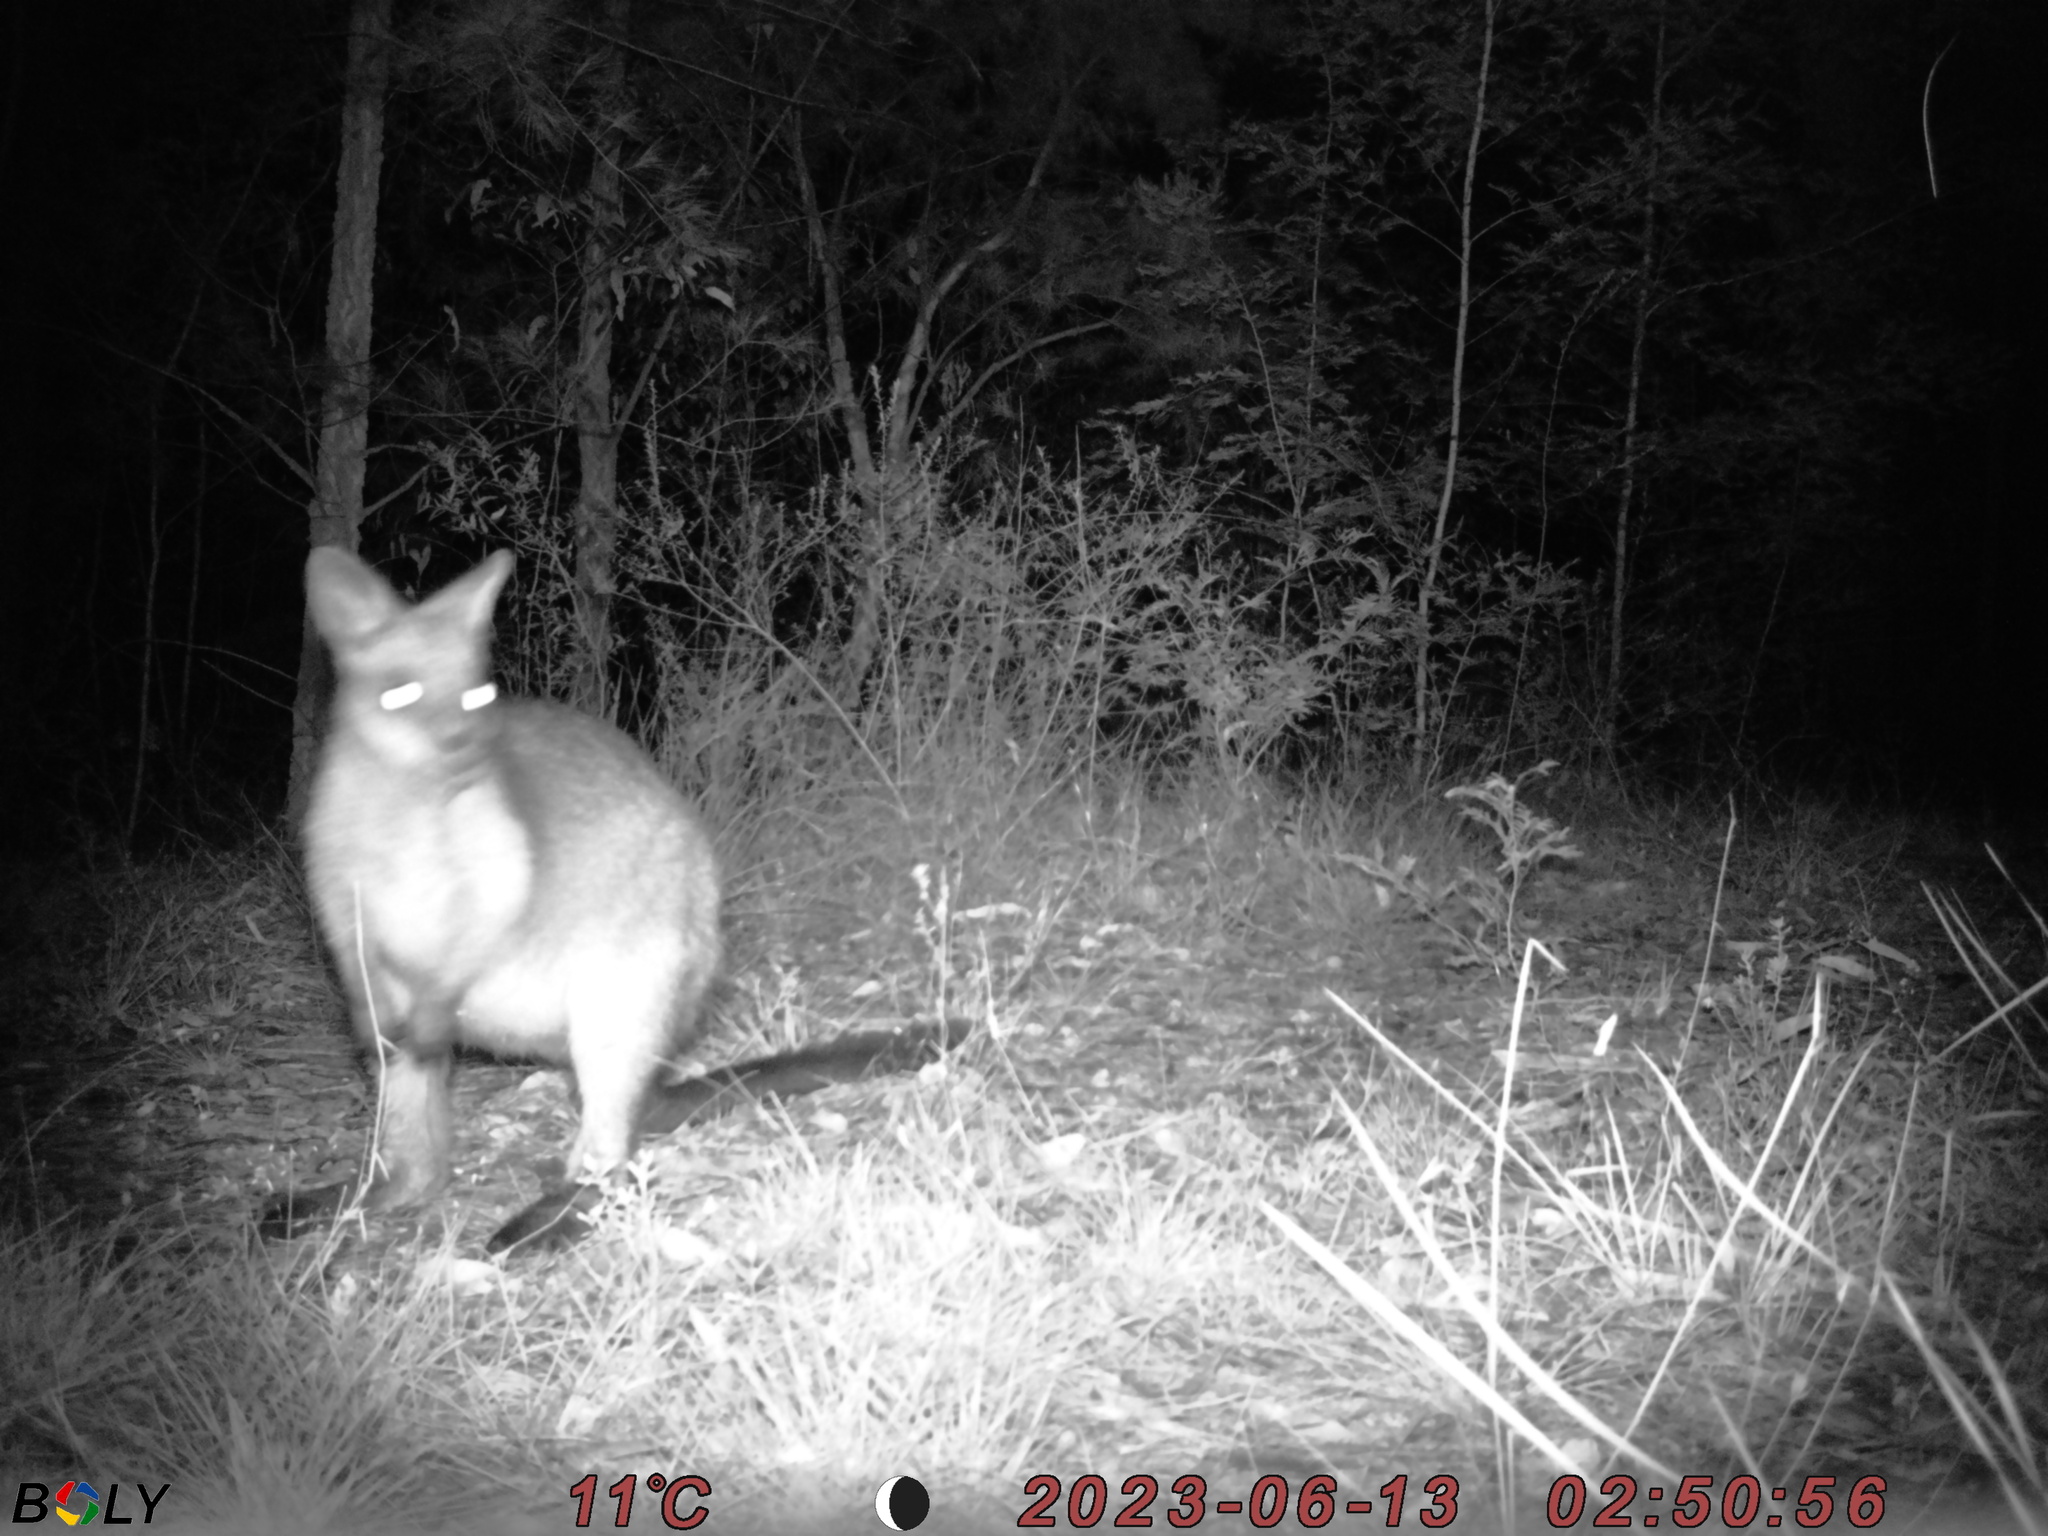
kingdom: Animalia
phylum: Chordata
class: Mammalia
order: Diprotodontia
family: Macropodidae
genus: Wallabia
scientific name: Wallabia bicolor
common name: Swamp wallaby
